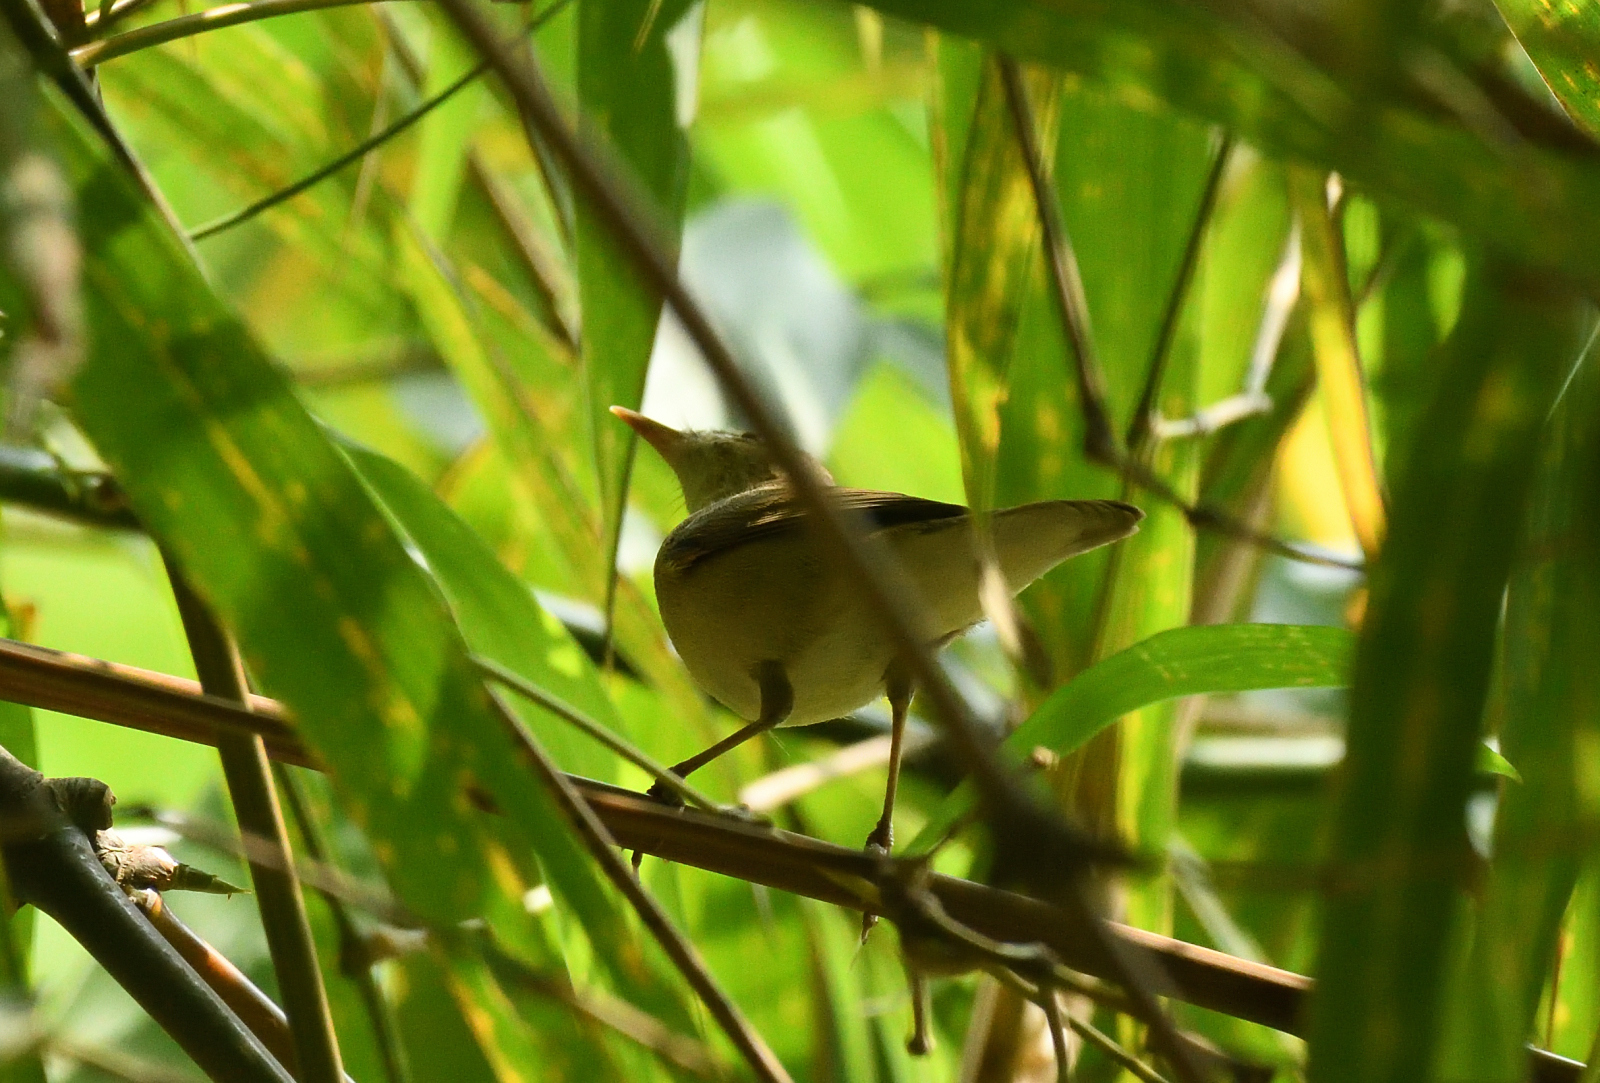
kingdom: Animalia
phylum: Chordata
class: Aves
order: Passeriformes
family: Acrocephalidae
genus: Acrocephalus
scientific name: Acrocephalus stentoreus
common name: Clamorous reed warbler
